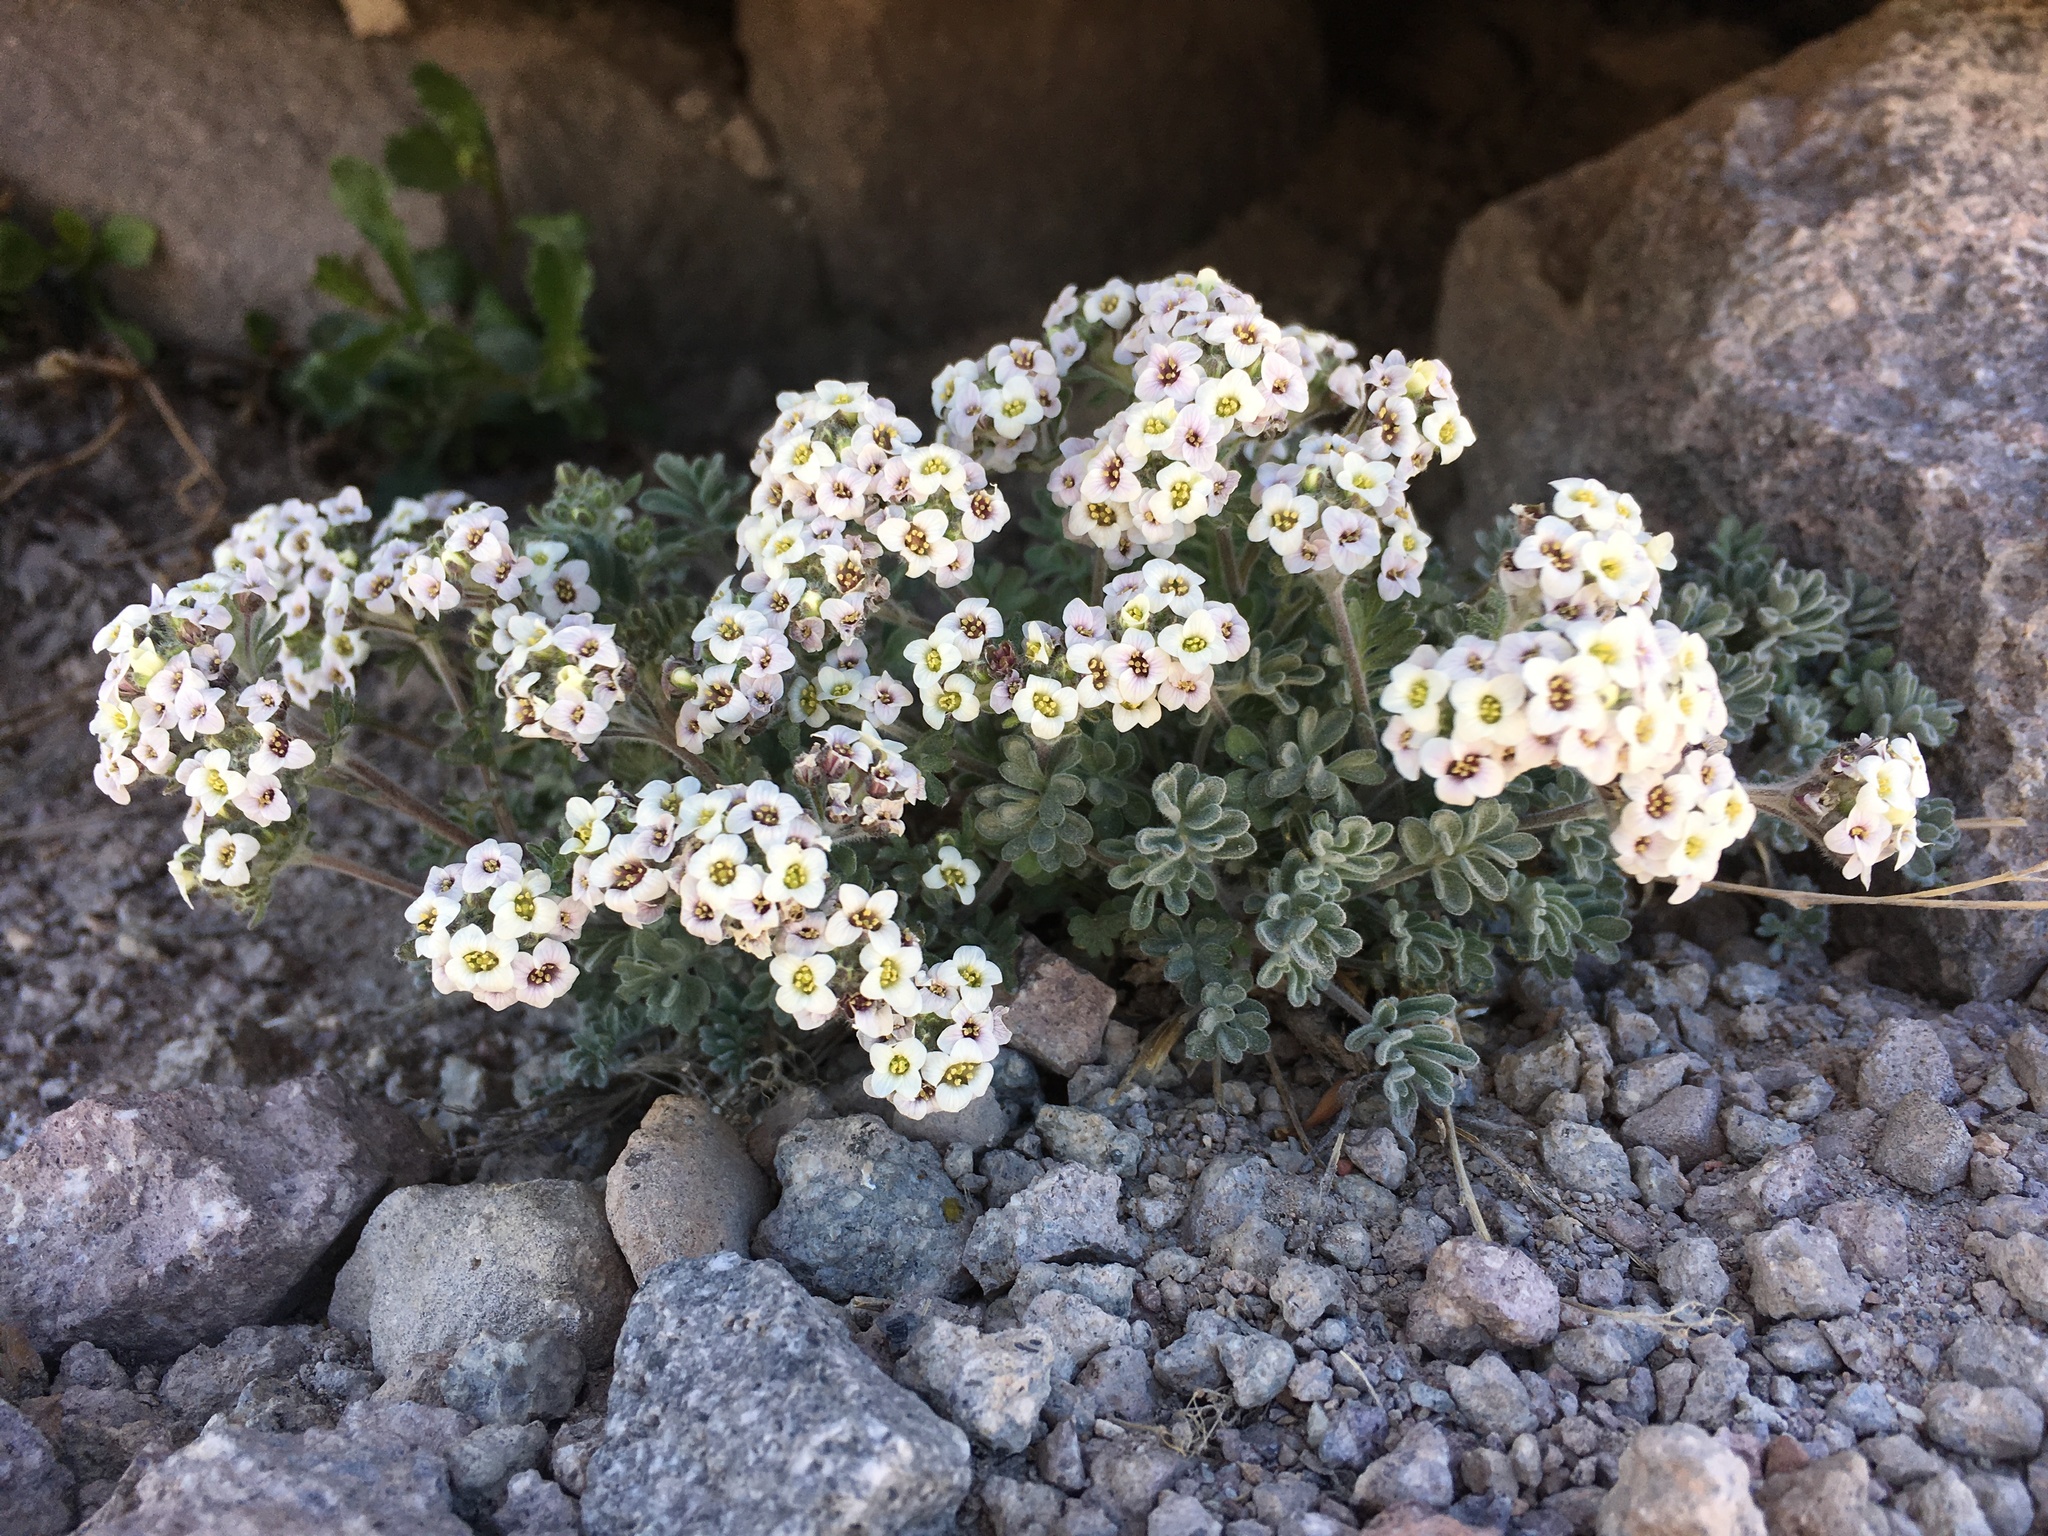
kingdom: Plantae
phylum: Tracheophyta
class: Magnoliopsida
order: Brassicales
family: Brassicaceae
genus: Smelowskia
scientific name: Smelowskia ovalis
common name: Alpine false candytuft
